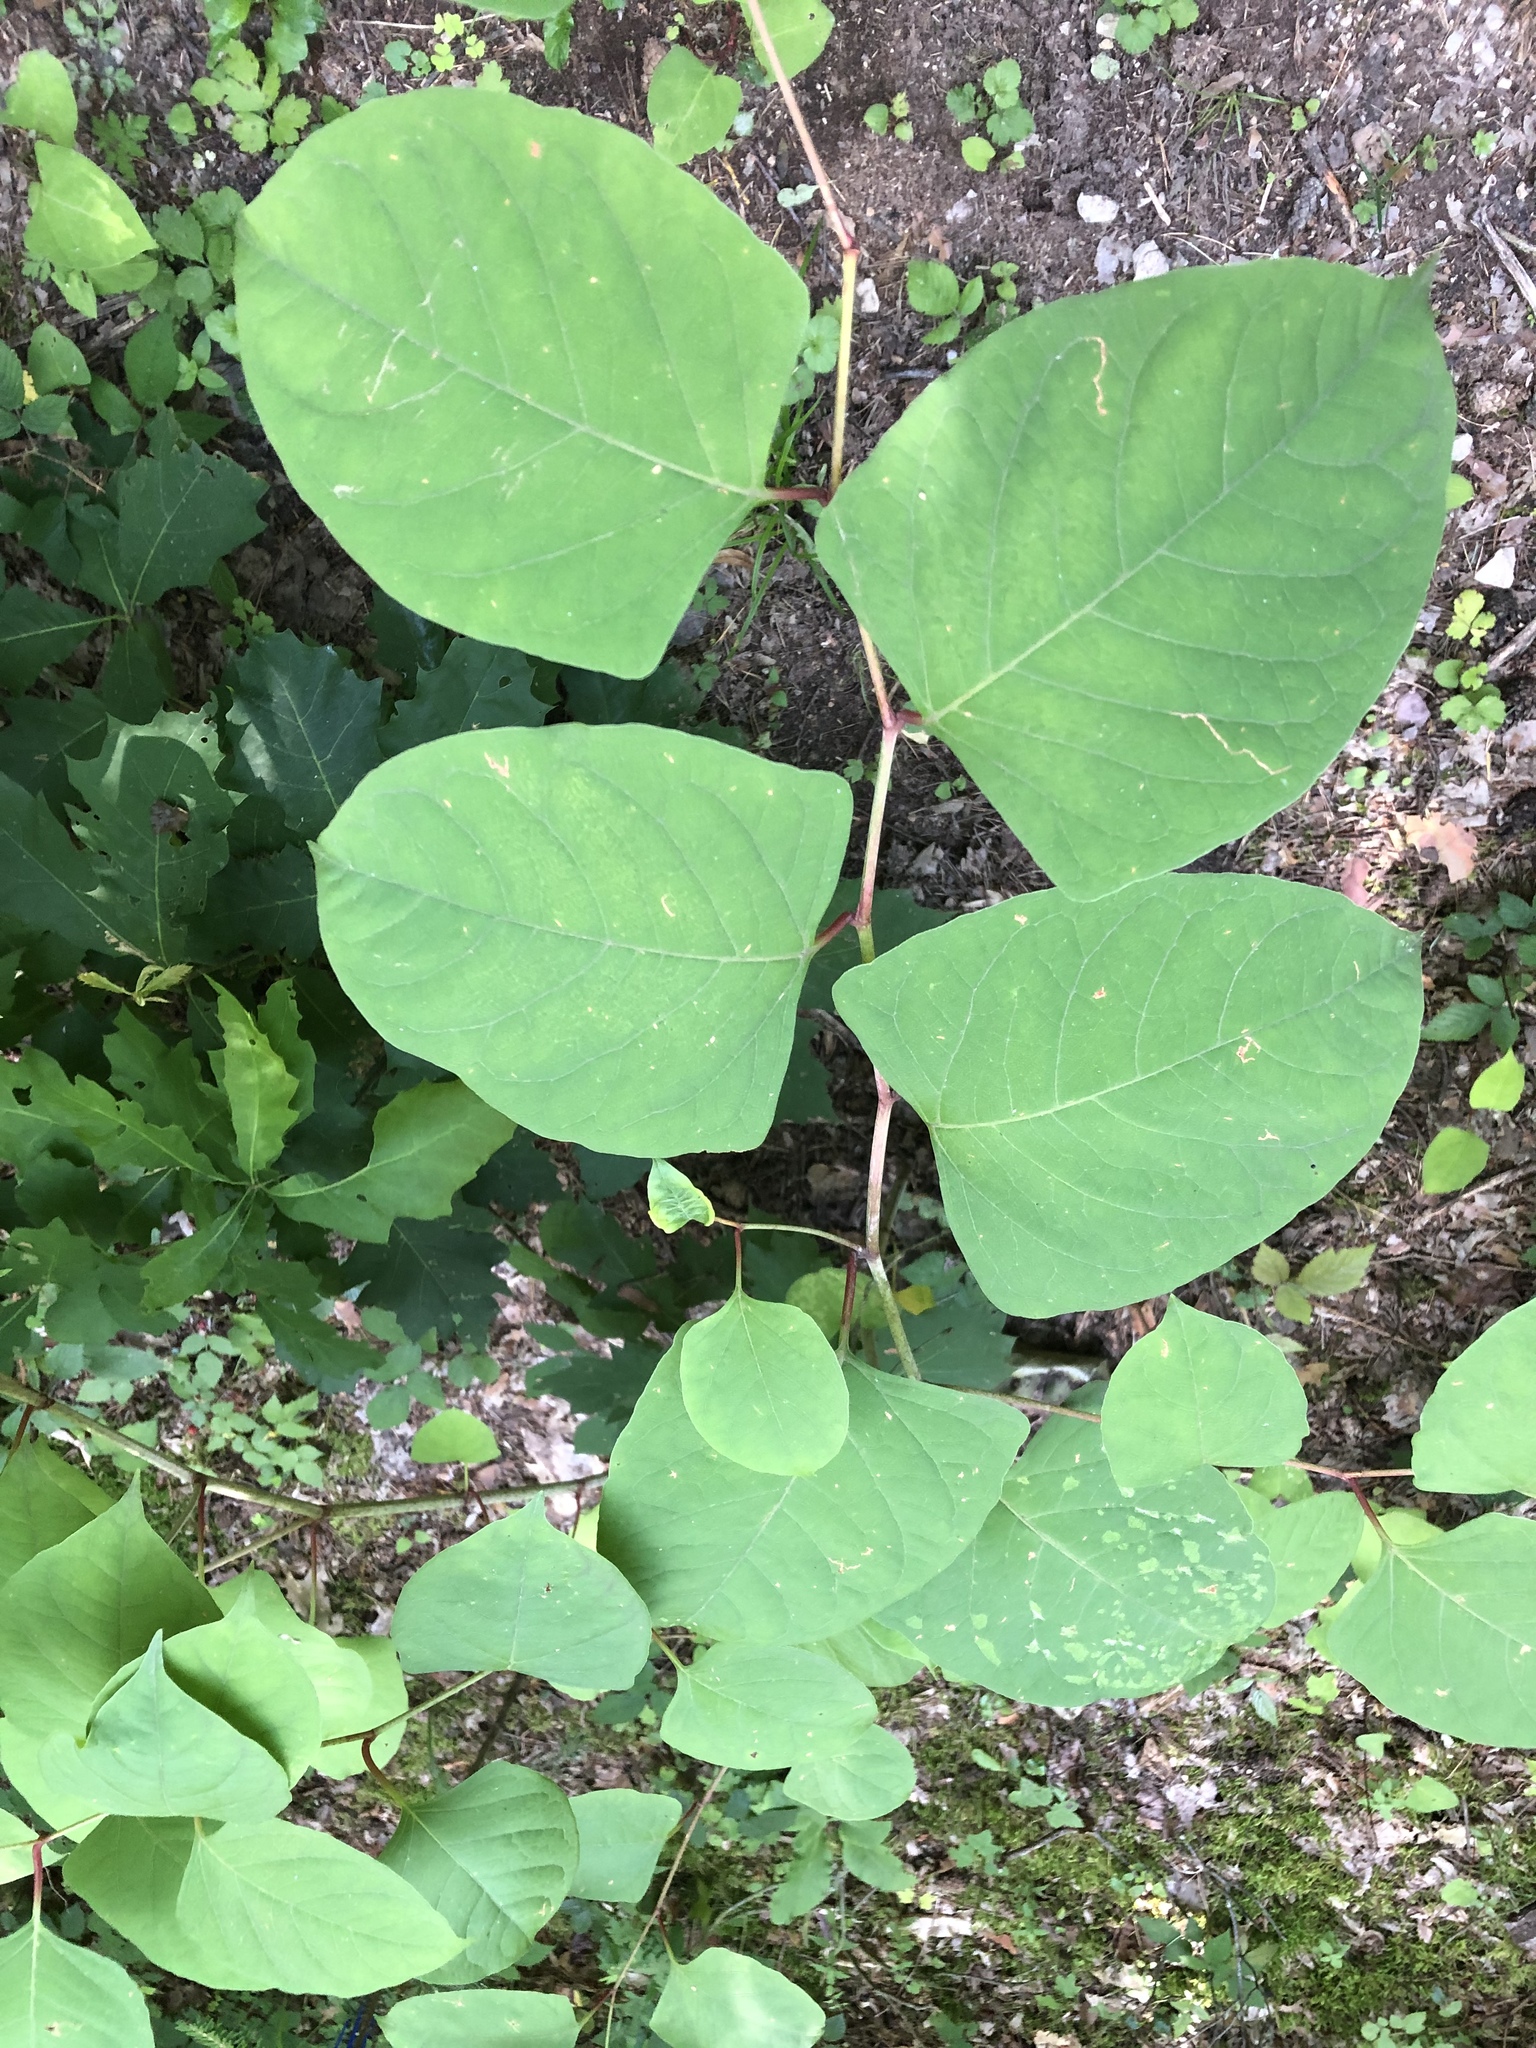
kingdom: Plantae
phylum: Tracheophyta
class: Magnoliopsida
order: Caryophyllales
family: Polygonaceae
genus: Reynoutria
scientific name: Reynoutria japonica
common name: Japanese knotweed
